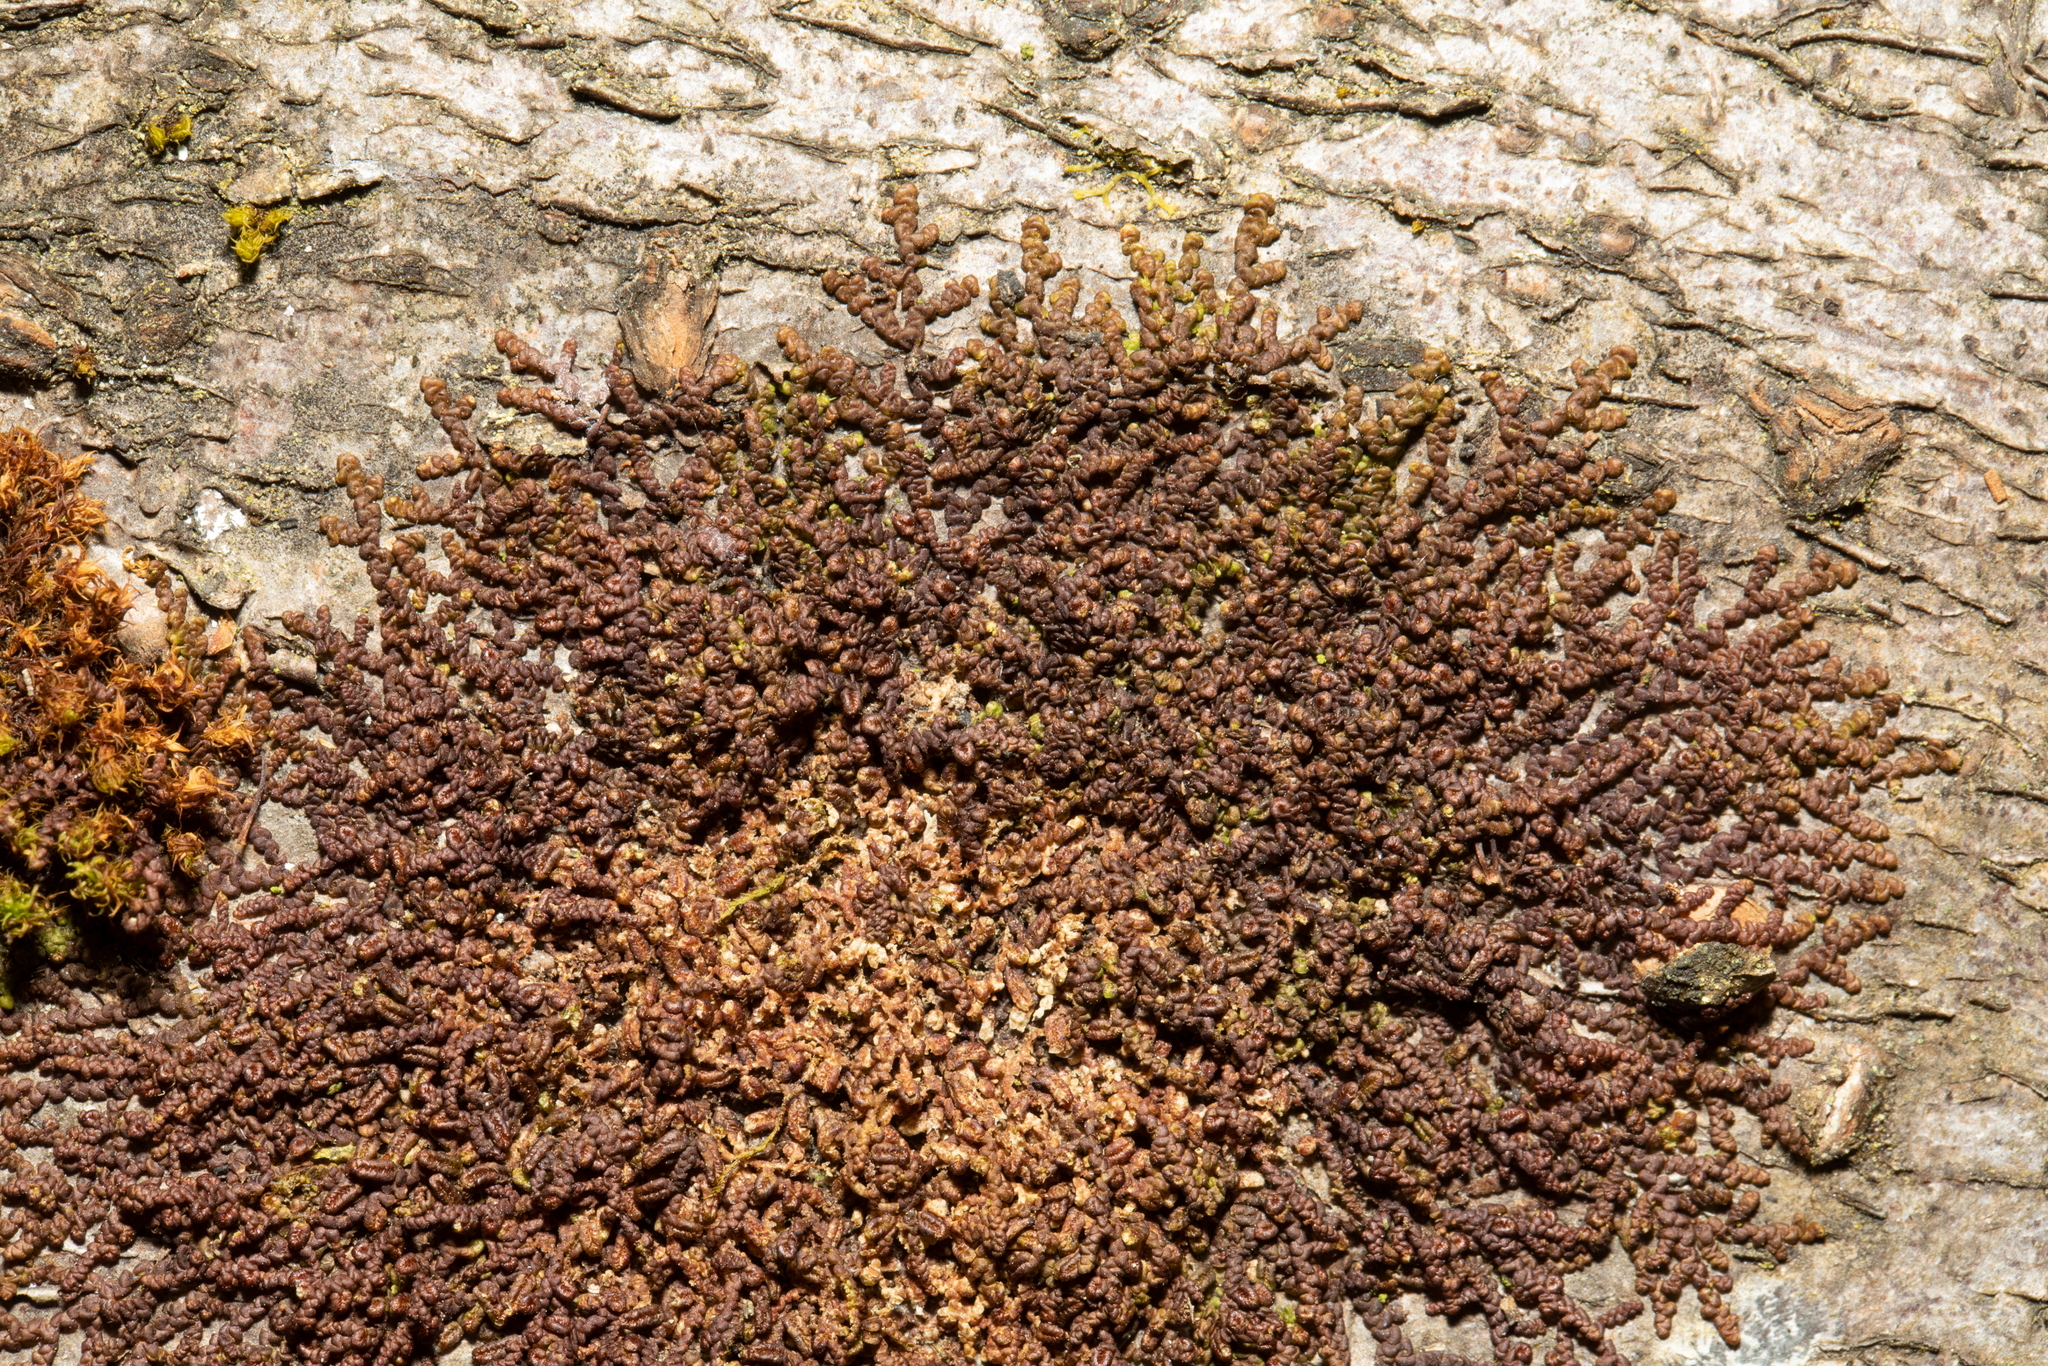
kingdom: Plantae
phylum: Marchantiophyta
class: Jungermanniopsida
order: Porellales
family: Frullaniaceae
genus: Frullania
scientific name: Frullania dilatata
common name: Dilated scalewort
